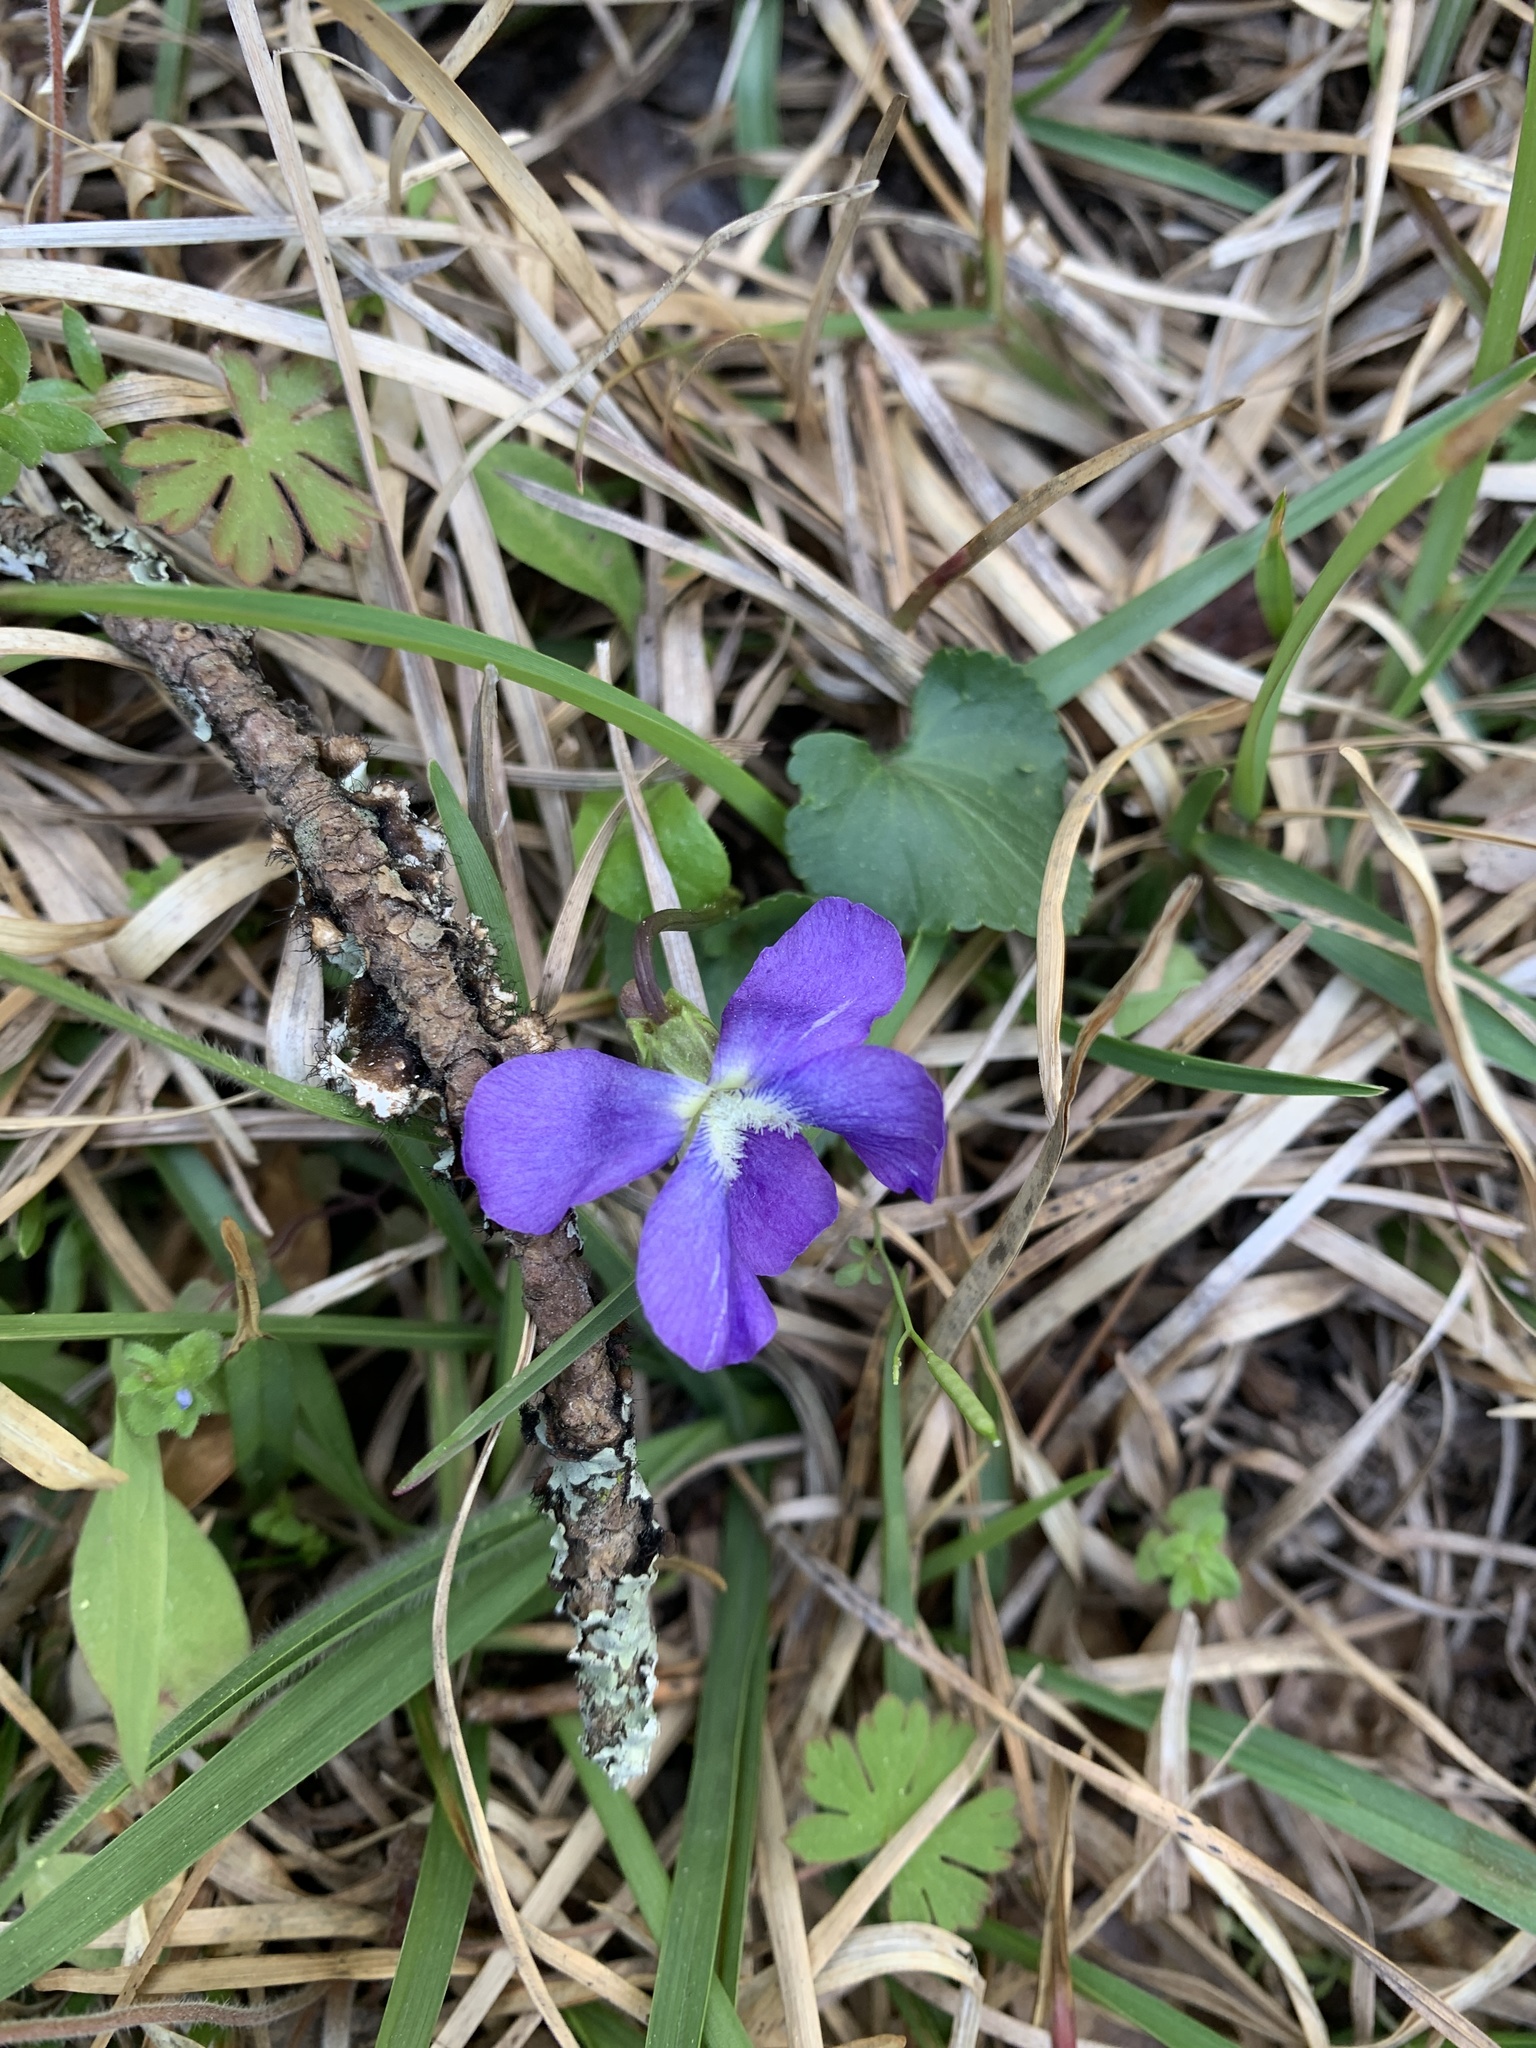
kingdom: Plantae
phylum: Tracheophyta
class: Magnoliopsida
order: Malpighiales
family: Violaceae
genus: Viola
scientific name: Viola sororia
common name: Dooryard violet
